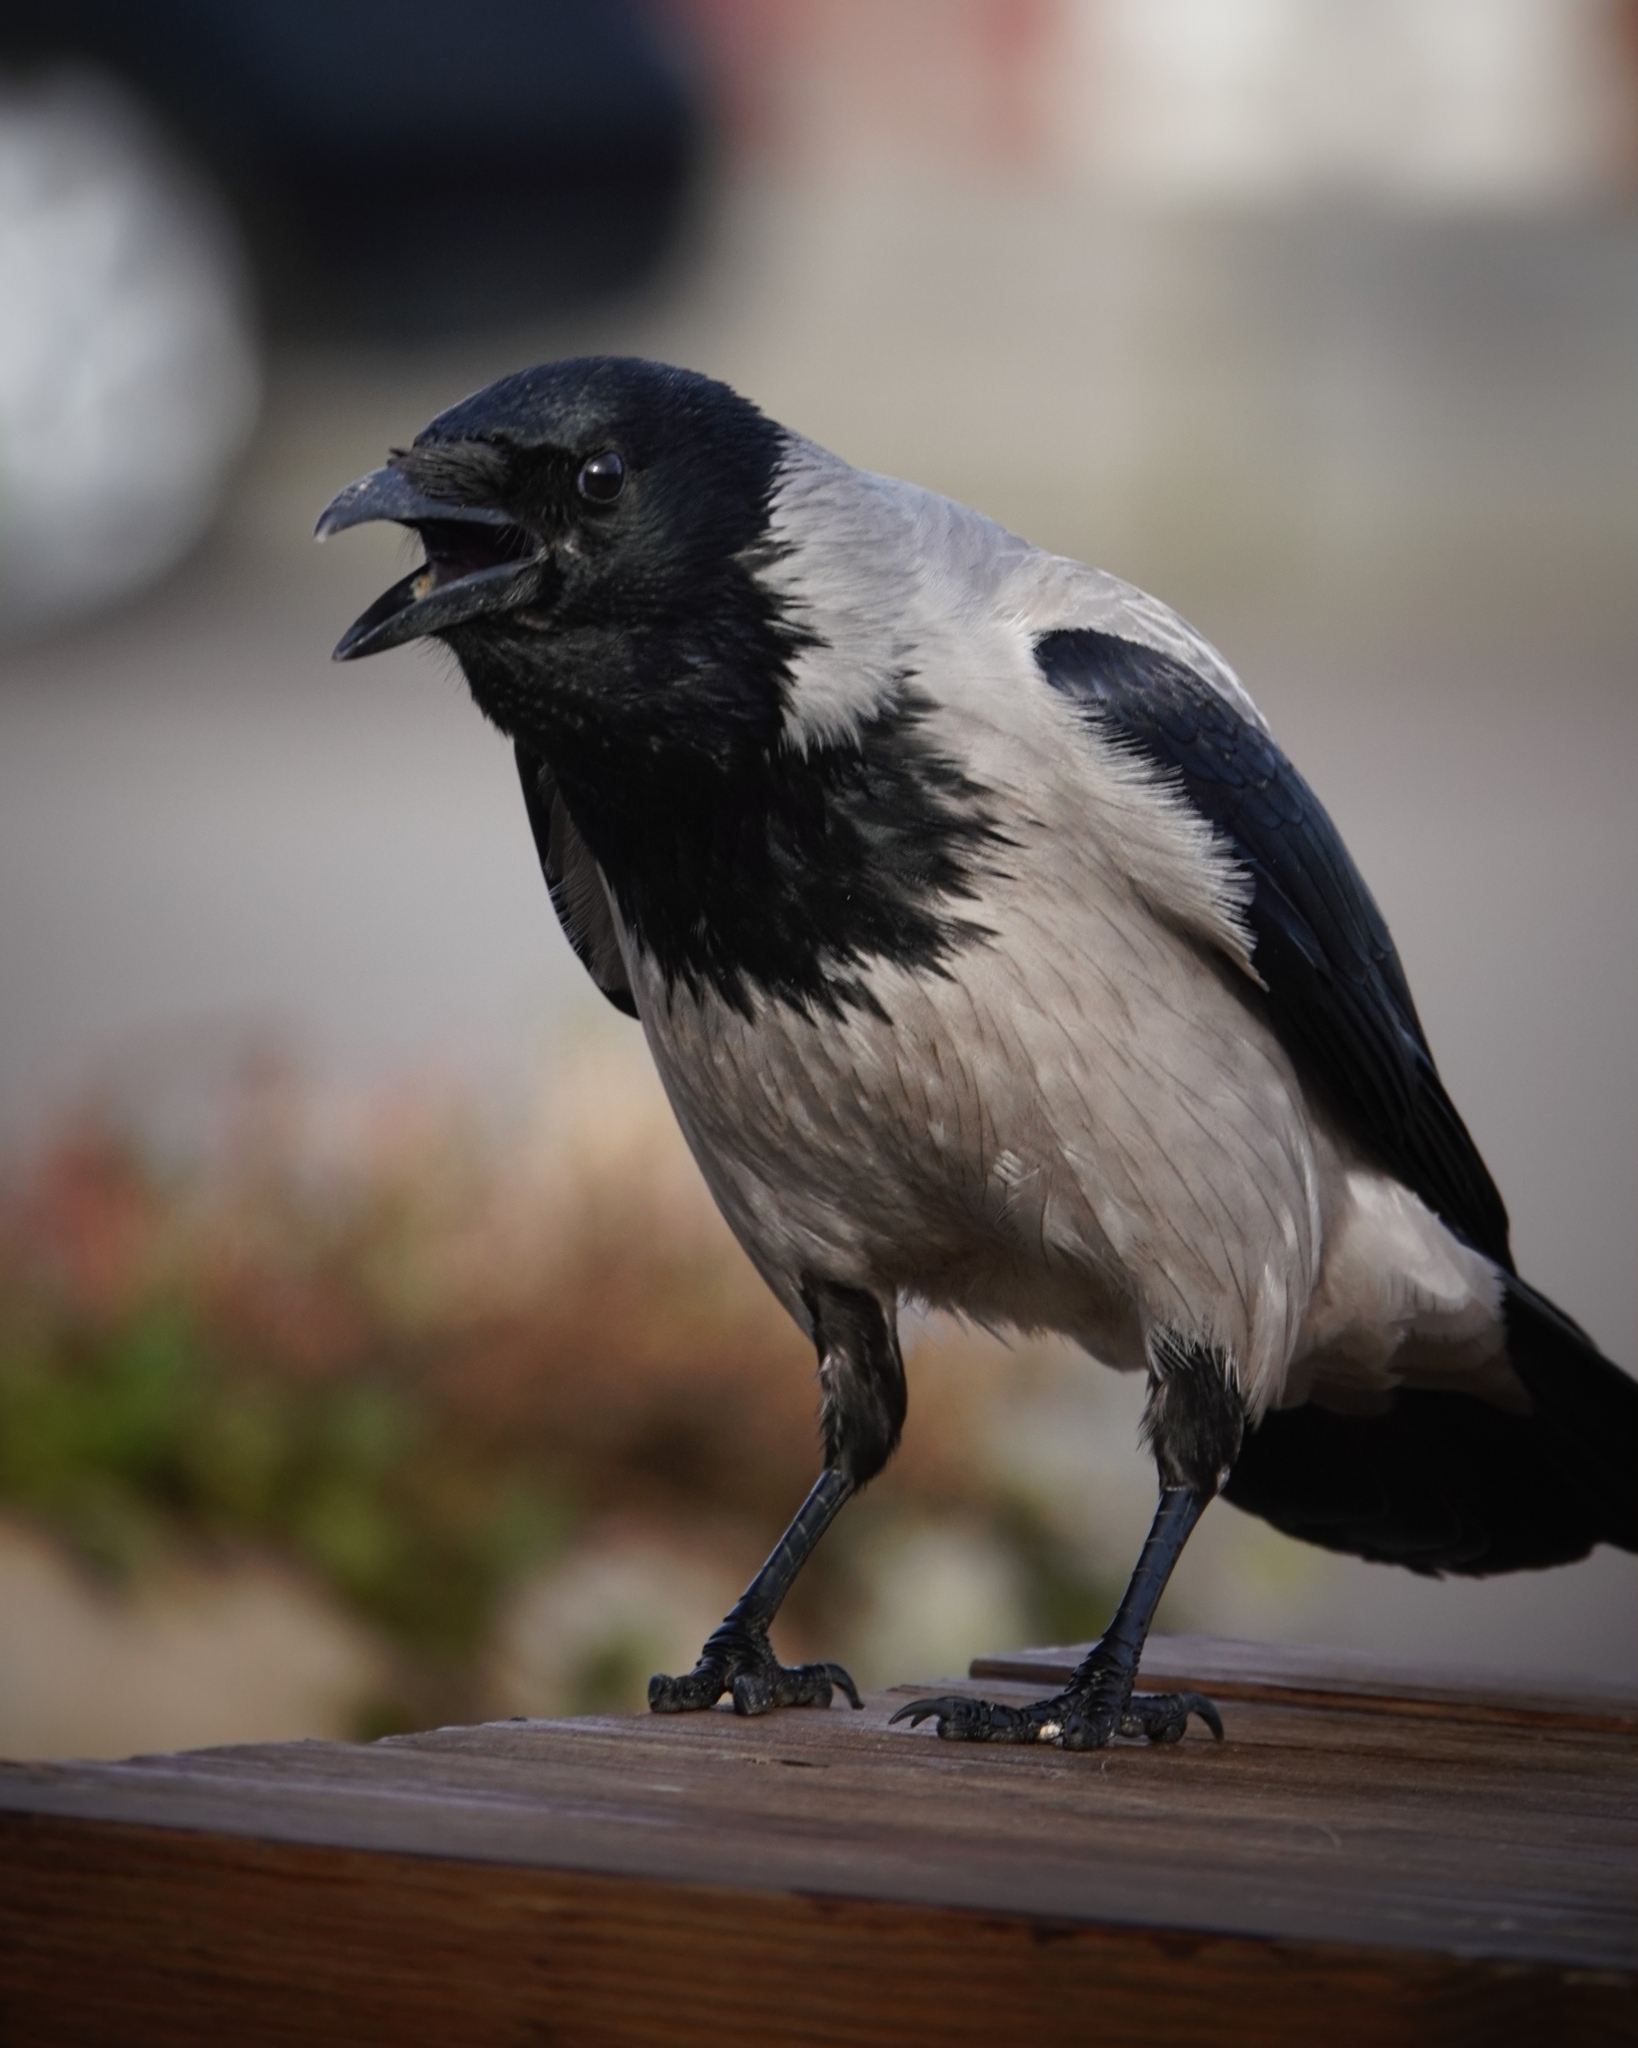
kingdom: Animalia
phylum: Chordata
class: Aves
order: Passeriformes
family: Corvidae
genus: Corvus
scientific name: Corvus cornix
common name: Hooded crow
